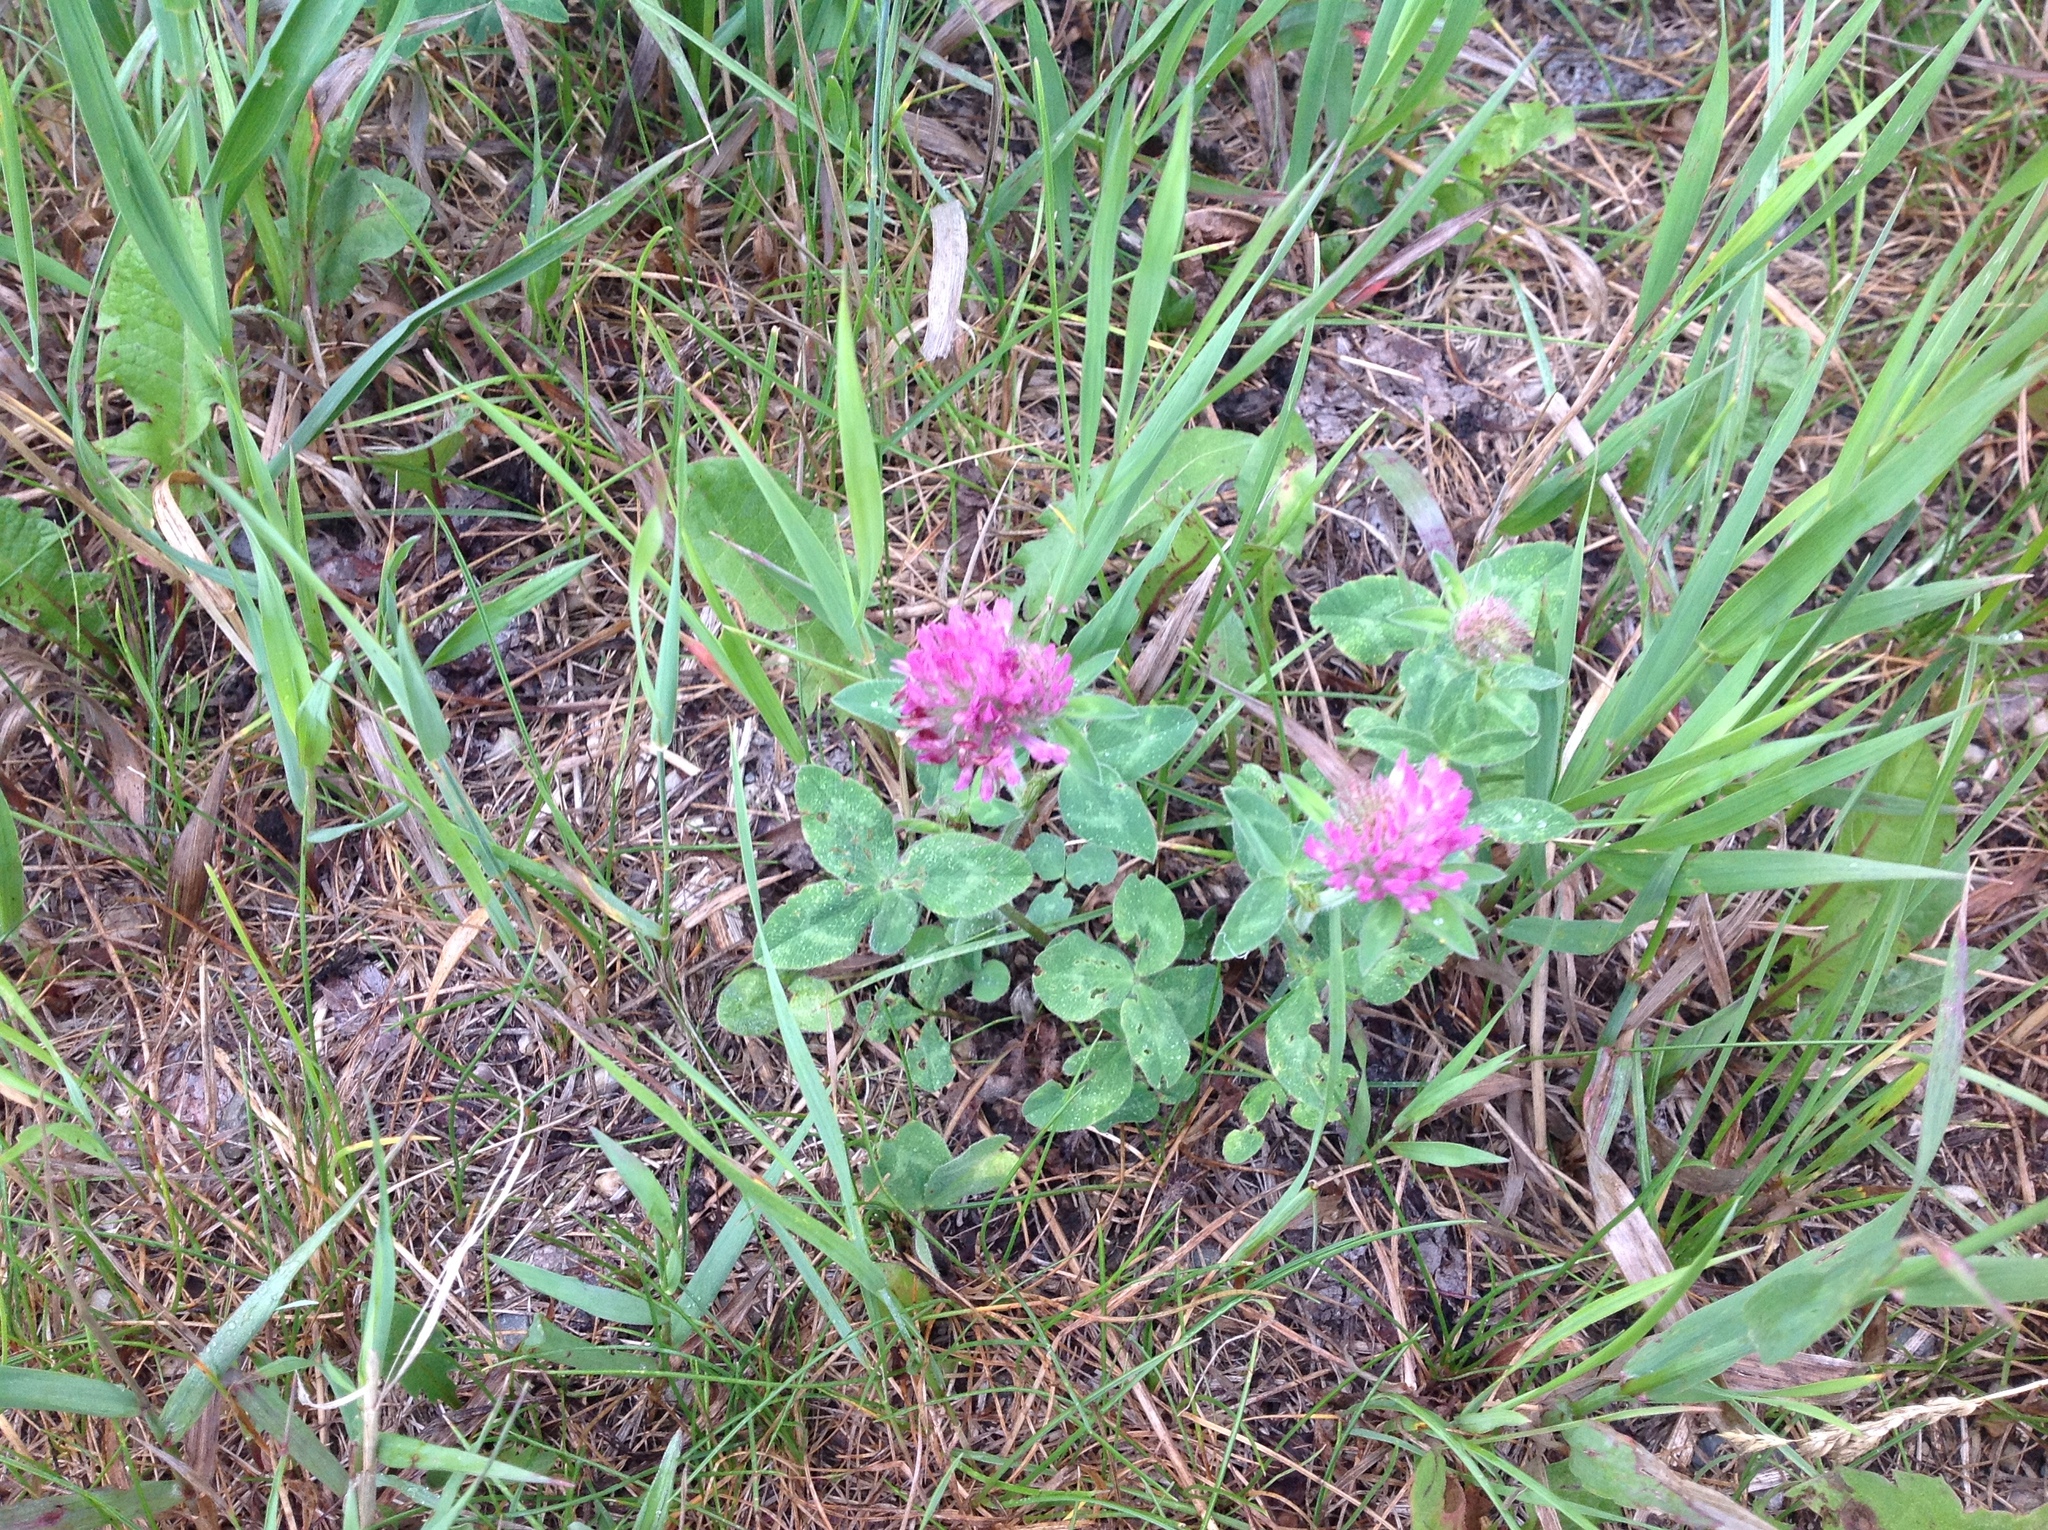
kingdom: Plantae
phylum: Tracheophyta
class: Magnoliopsida
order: Fabales
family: Fabaceae
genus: Trifolium
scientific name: Trifolium pratense
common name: Red clover
